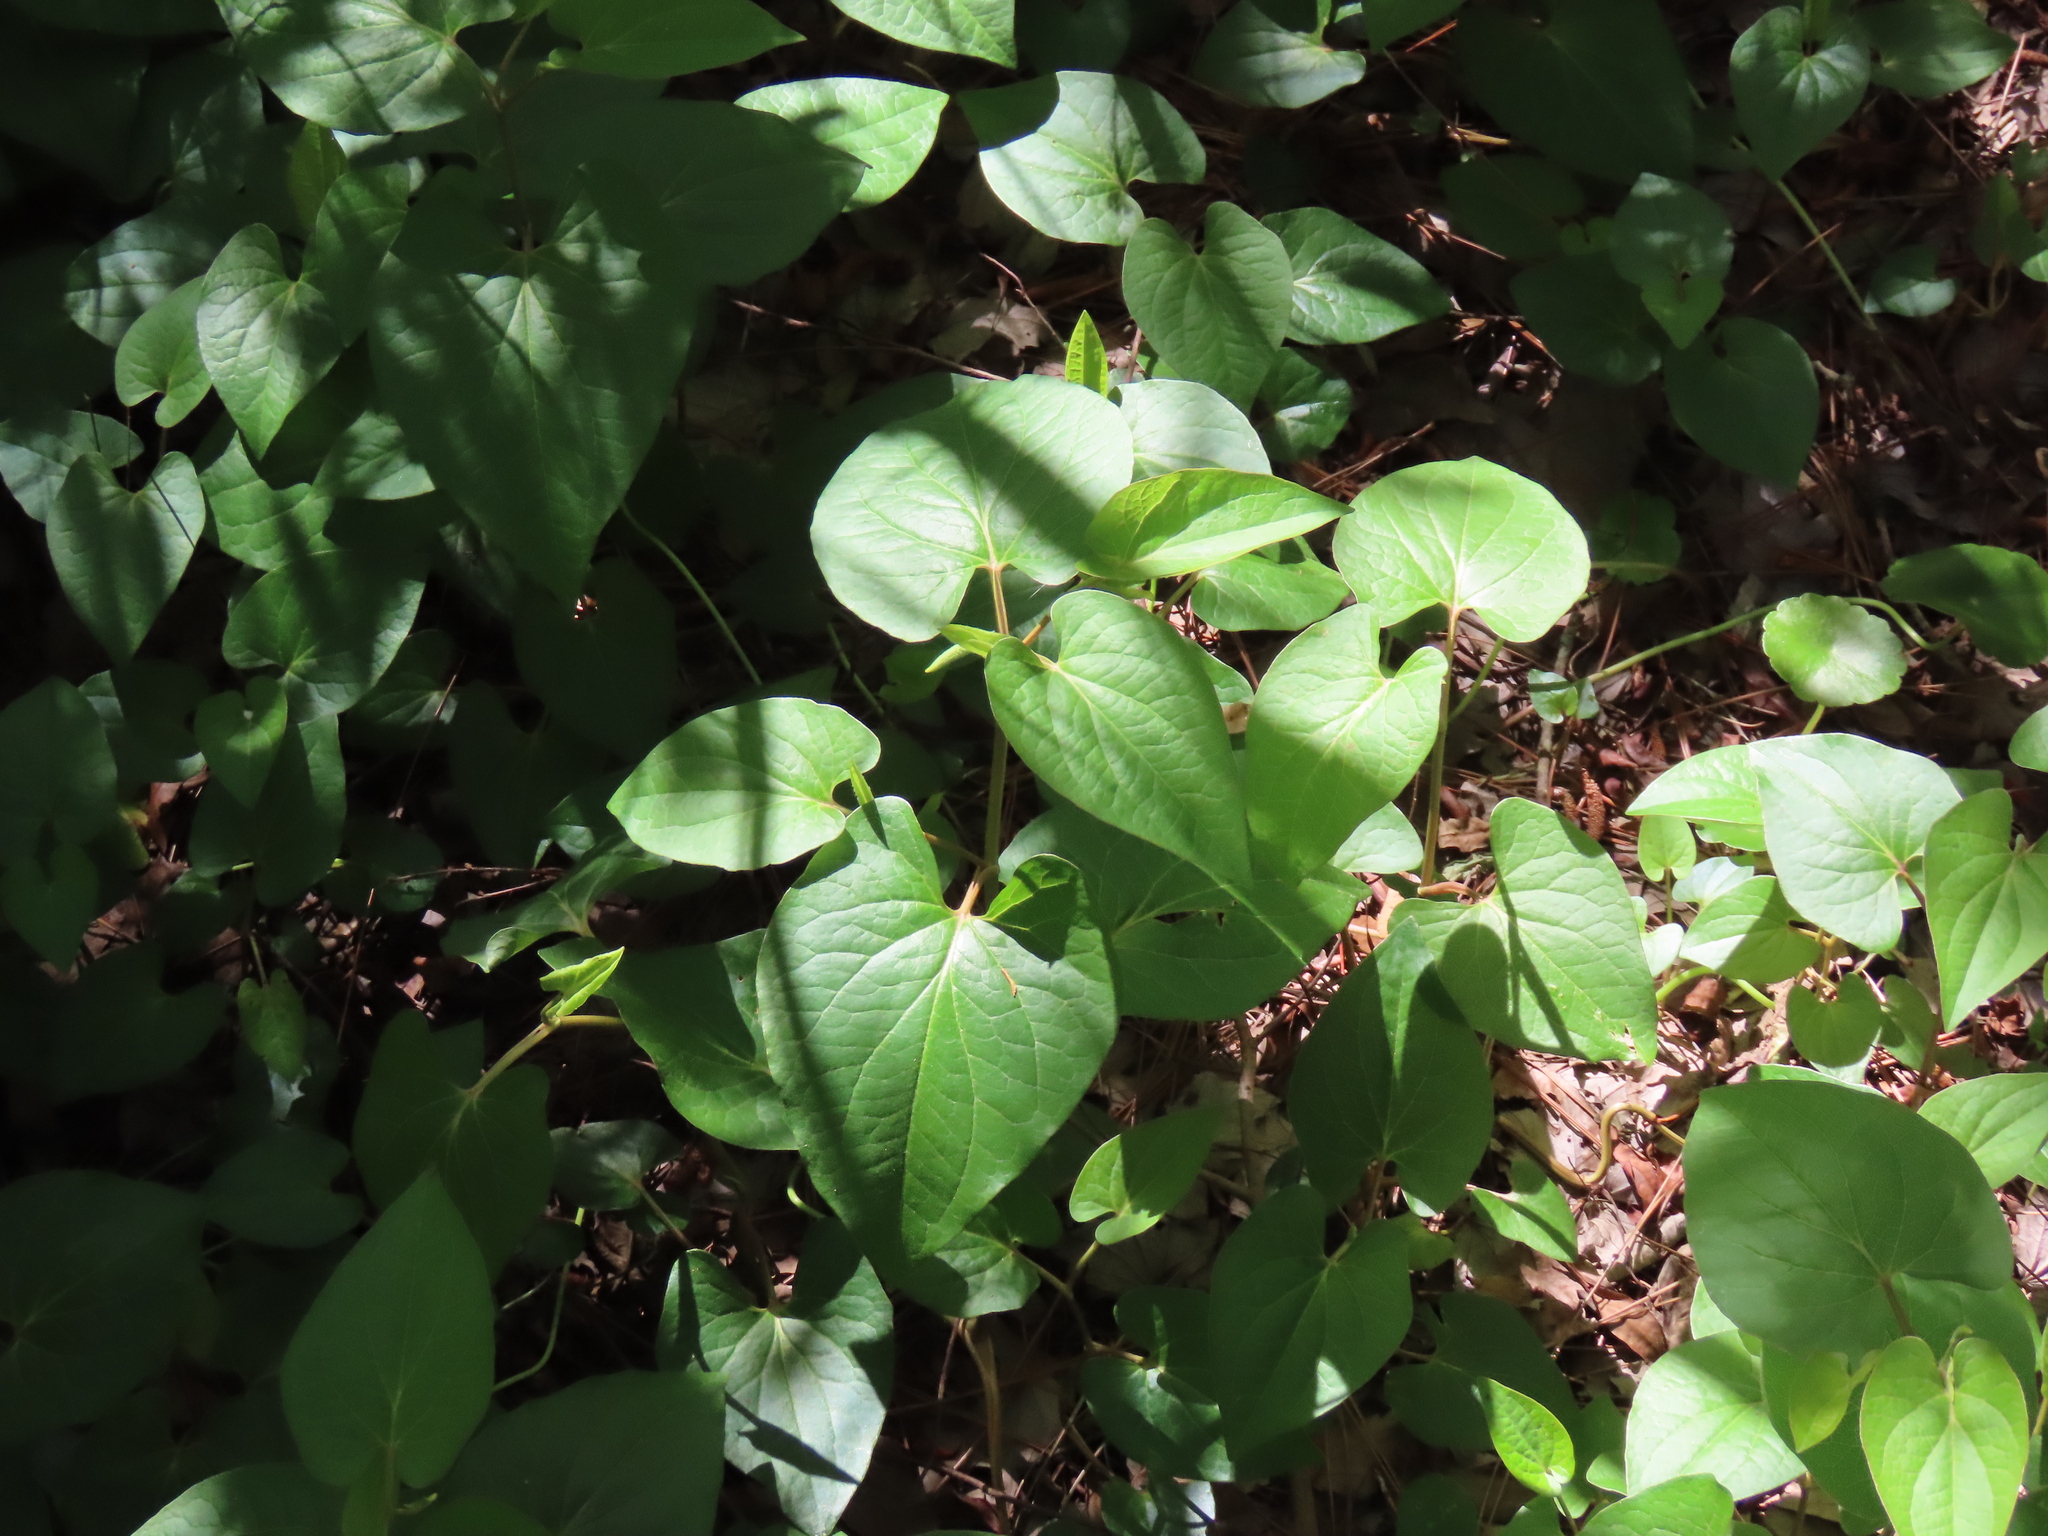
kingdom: Plantae
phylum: Tracheophyta
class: Magnoliopsida
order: Piperales
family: Saururaceae
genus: Saururus
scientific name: Saururus cernuus
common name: Lizard's-tail
